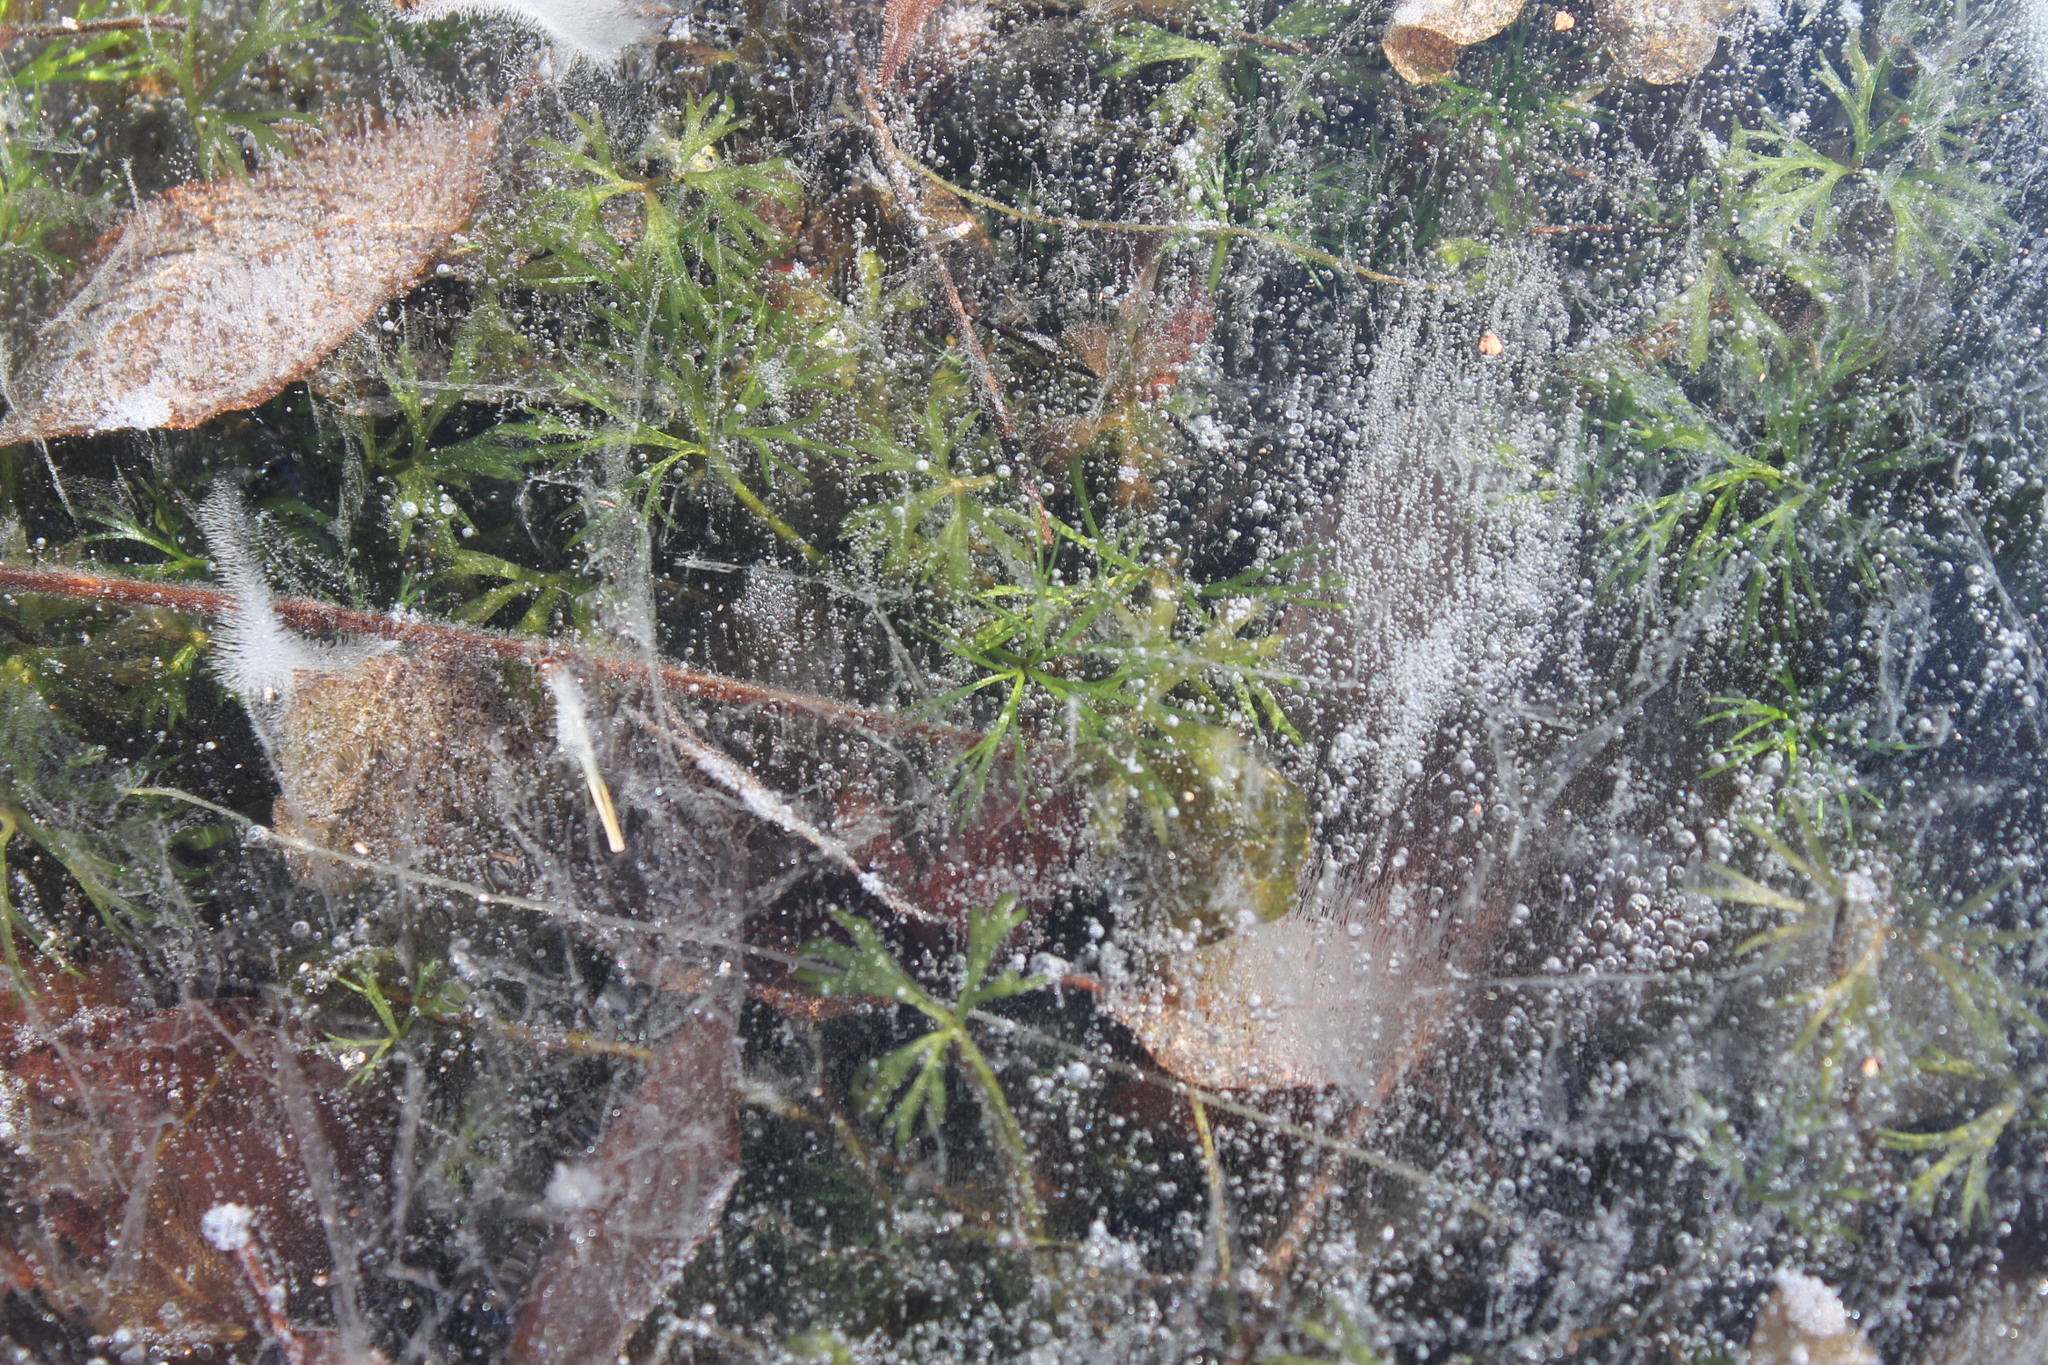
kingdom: Plantae
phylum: Tracheophyta
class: Magnoliopsida
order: Ranunculales
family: Ranunculaceae
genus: Ranunculus
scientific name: Ranunculus flabellaris
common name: Yellow water-crowfoot
